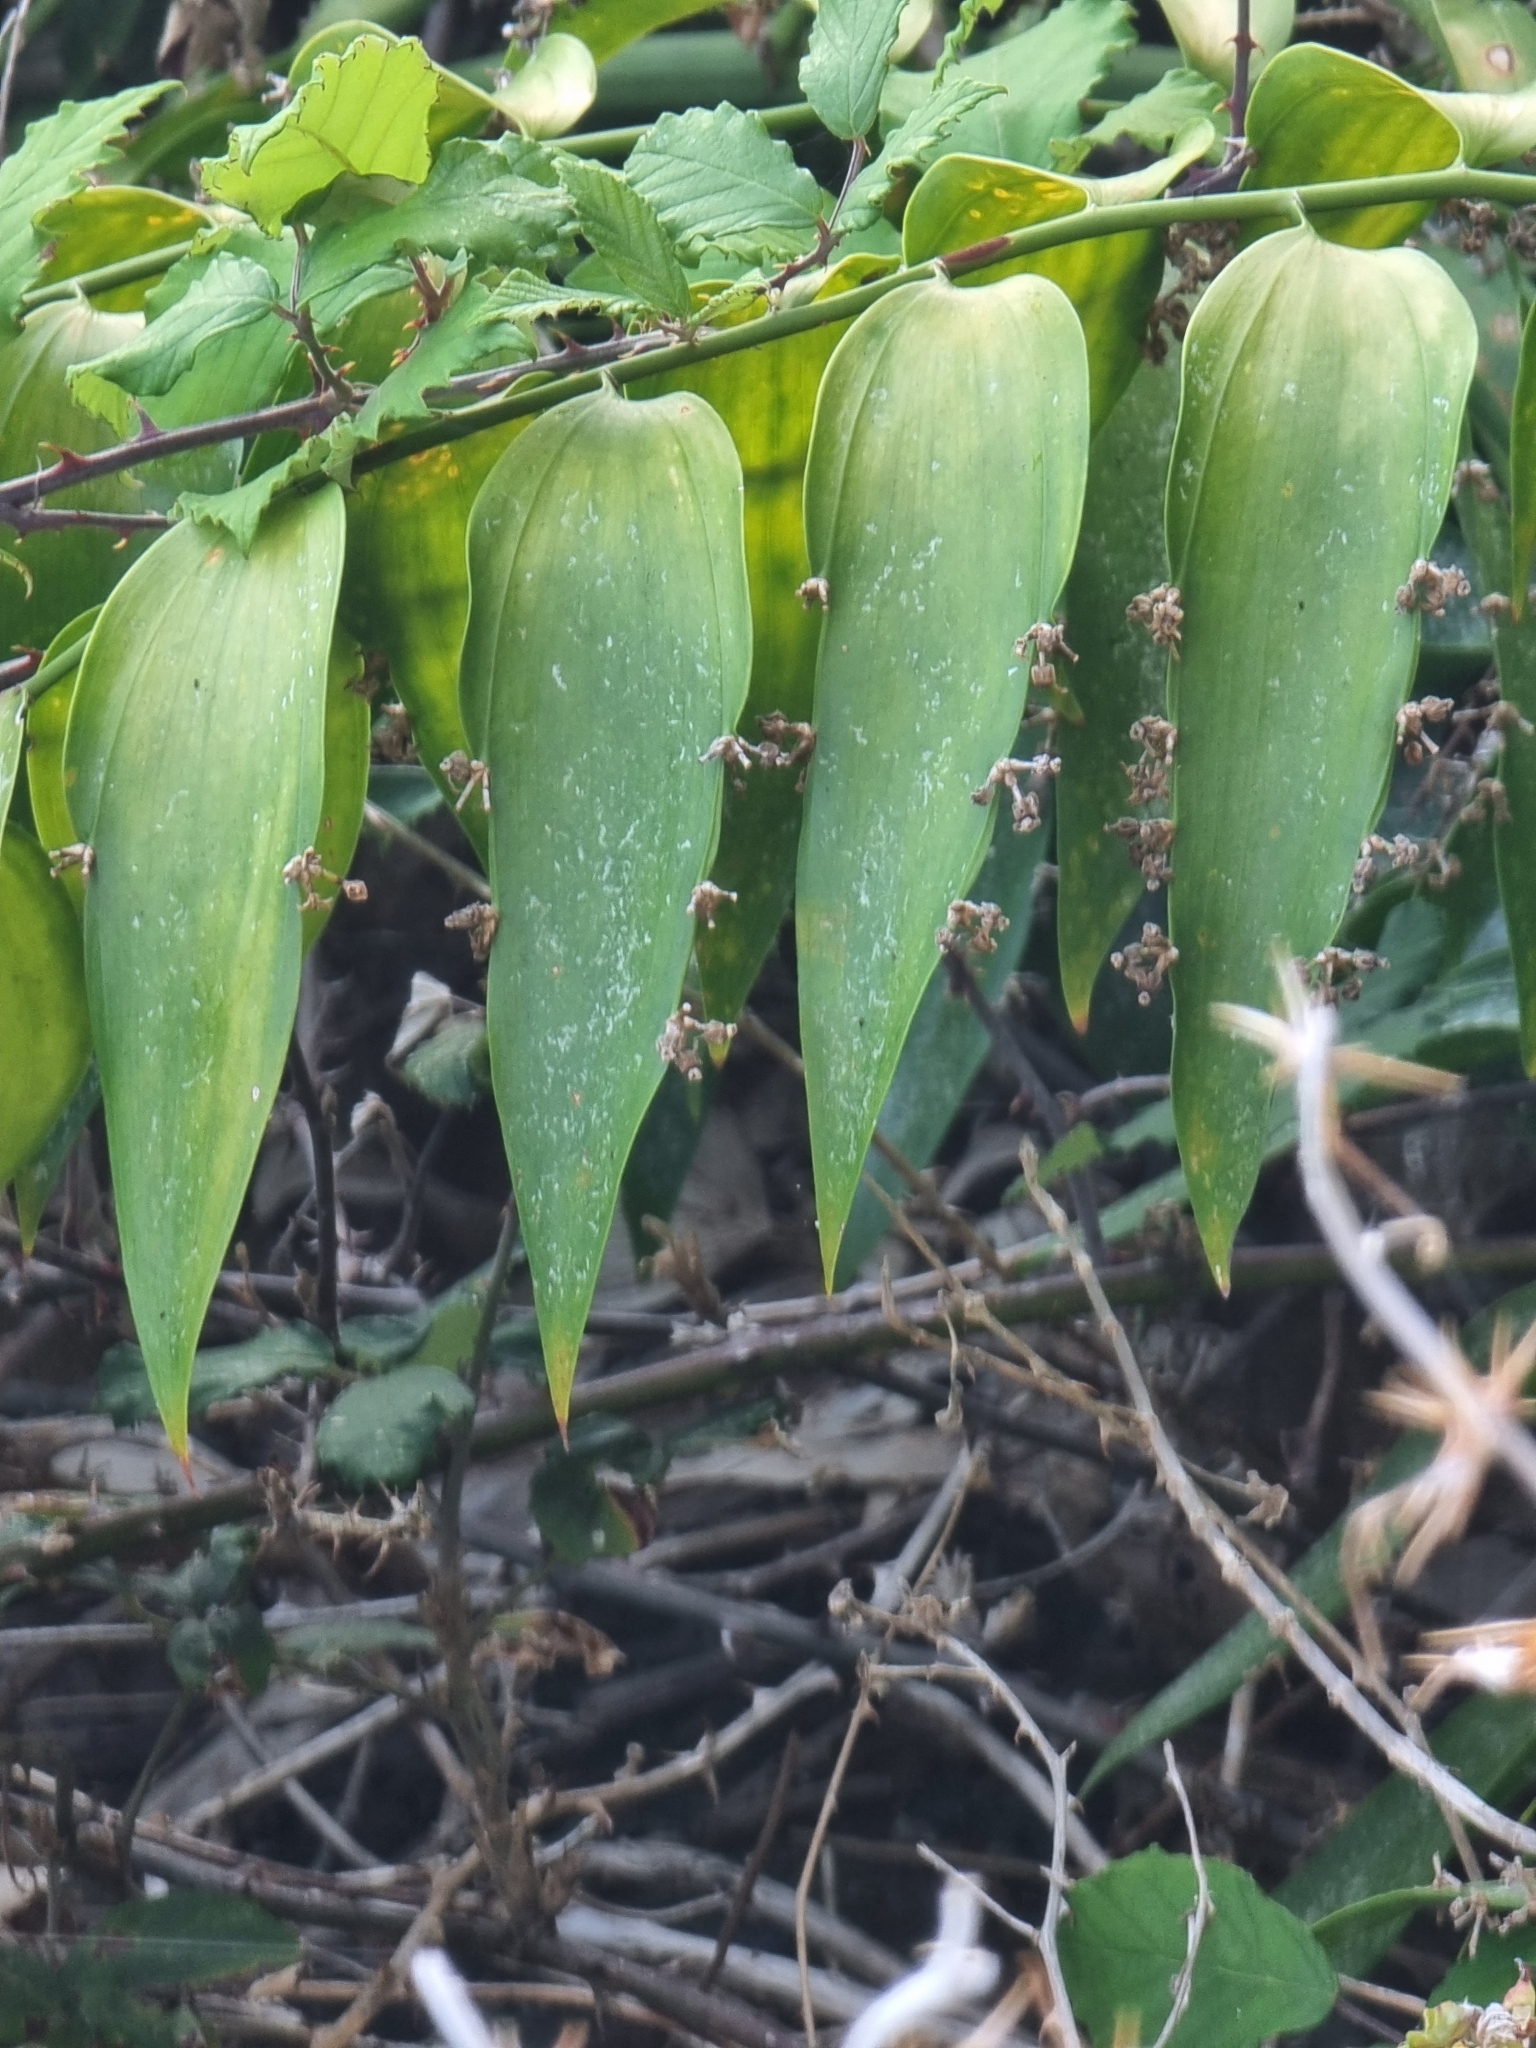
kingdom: Plantae
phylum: Tracheophyta
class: Liliopsida
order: Asparagales
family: Asparagaceae
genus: Semele
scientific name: Semele androgyna
